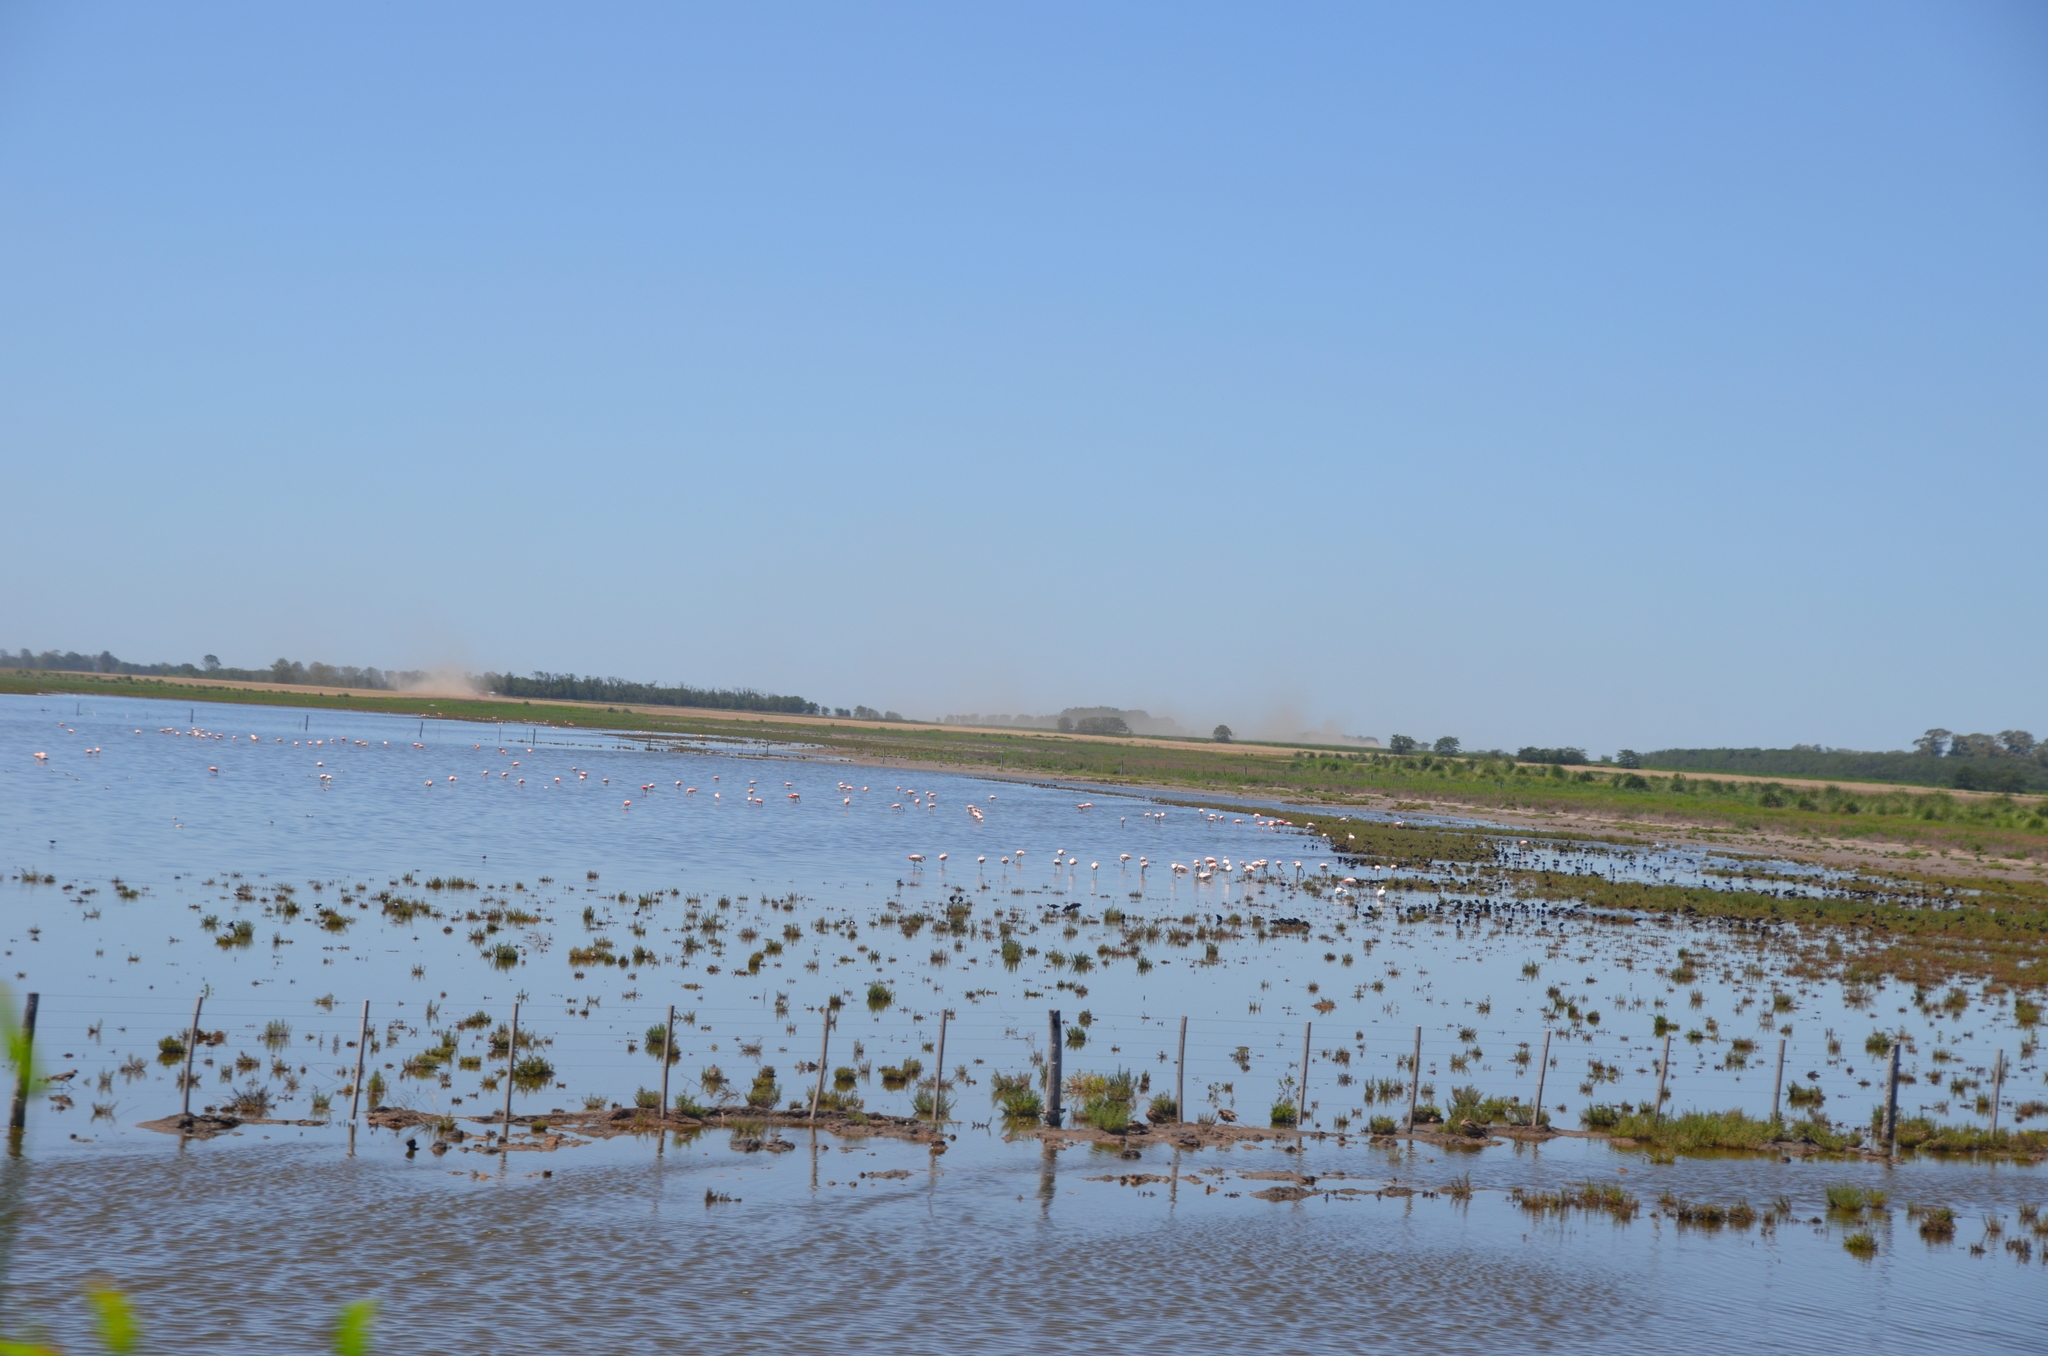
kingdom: Animalia
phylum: Chordata
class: Aves
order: Phoenicopteriformes
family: Phoenicopteridae
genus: Phoenicopterus
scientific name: Phoenicopterus chilensis
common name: Chilean flamingo
